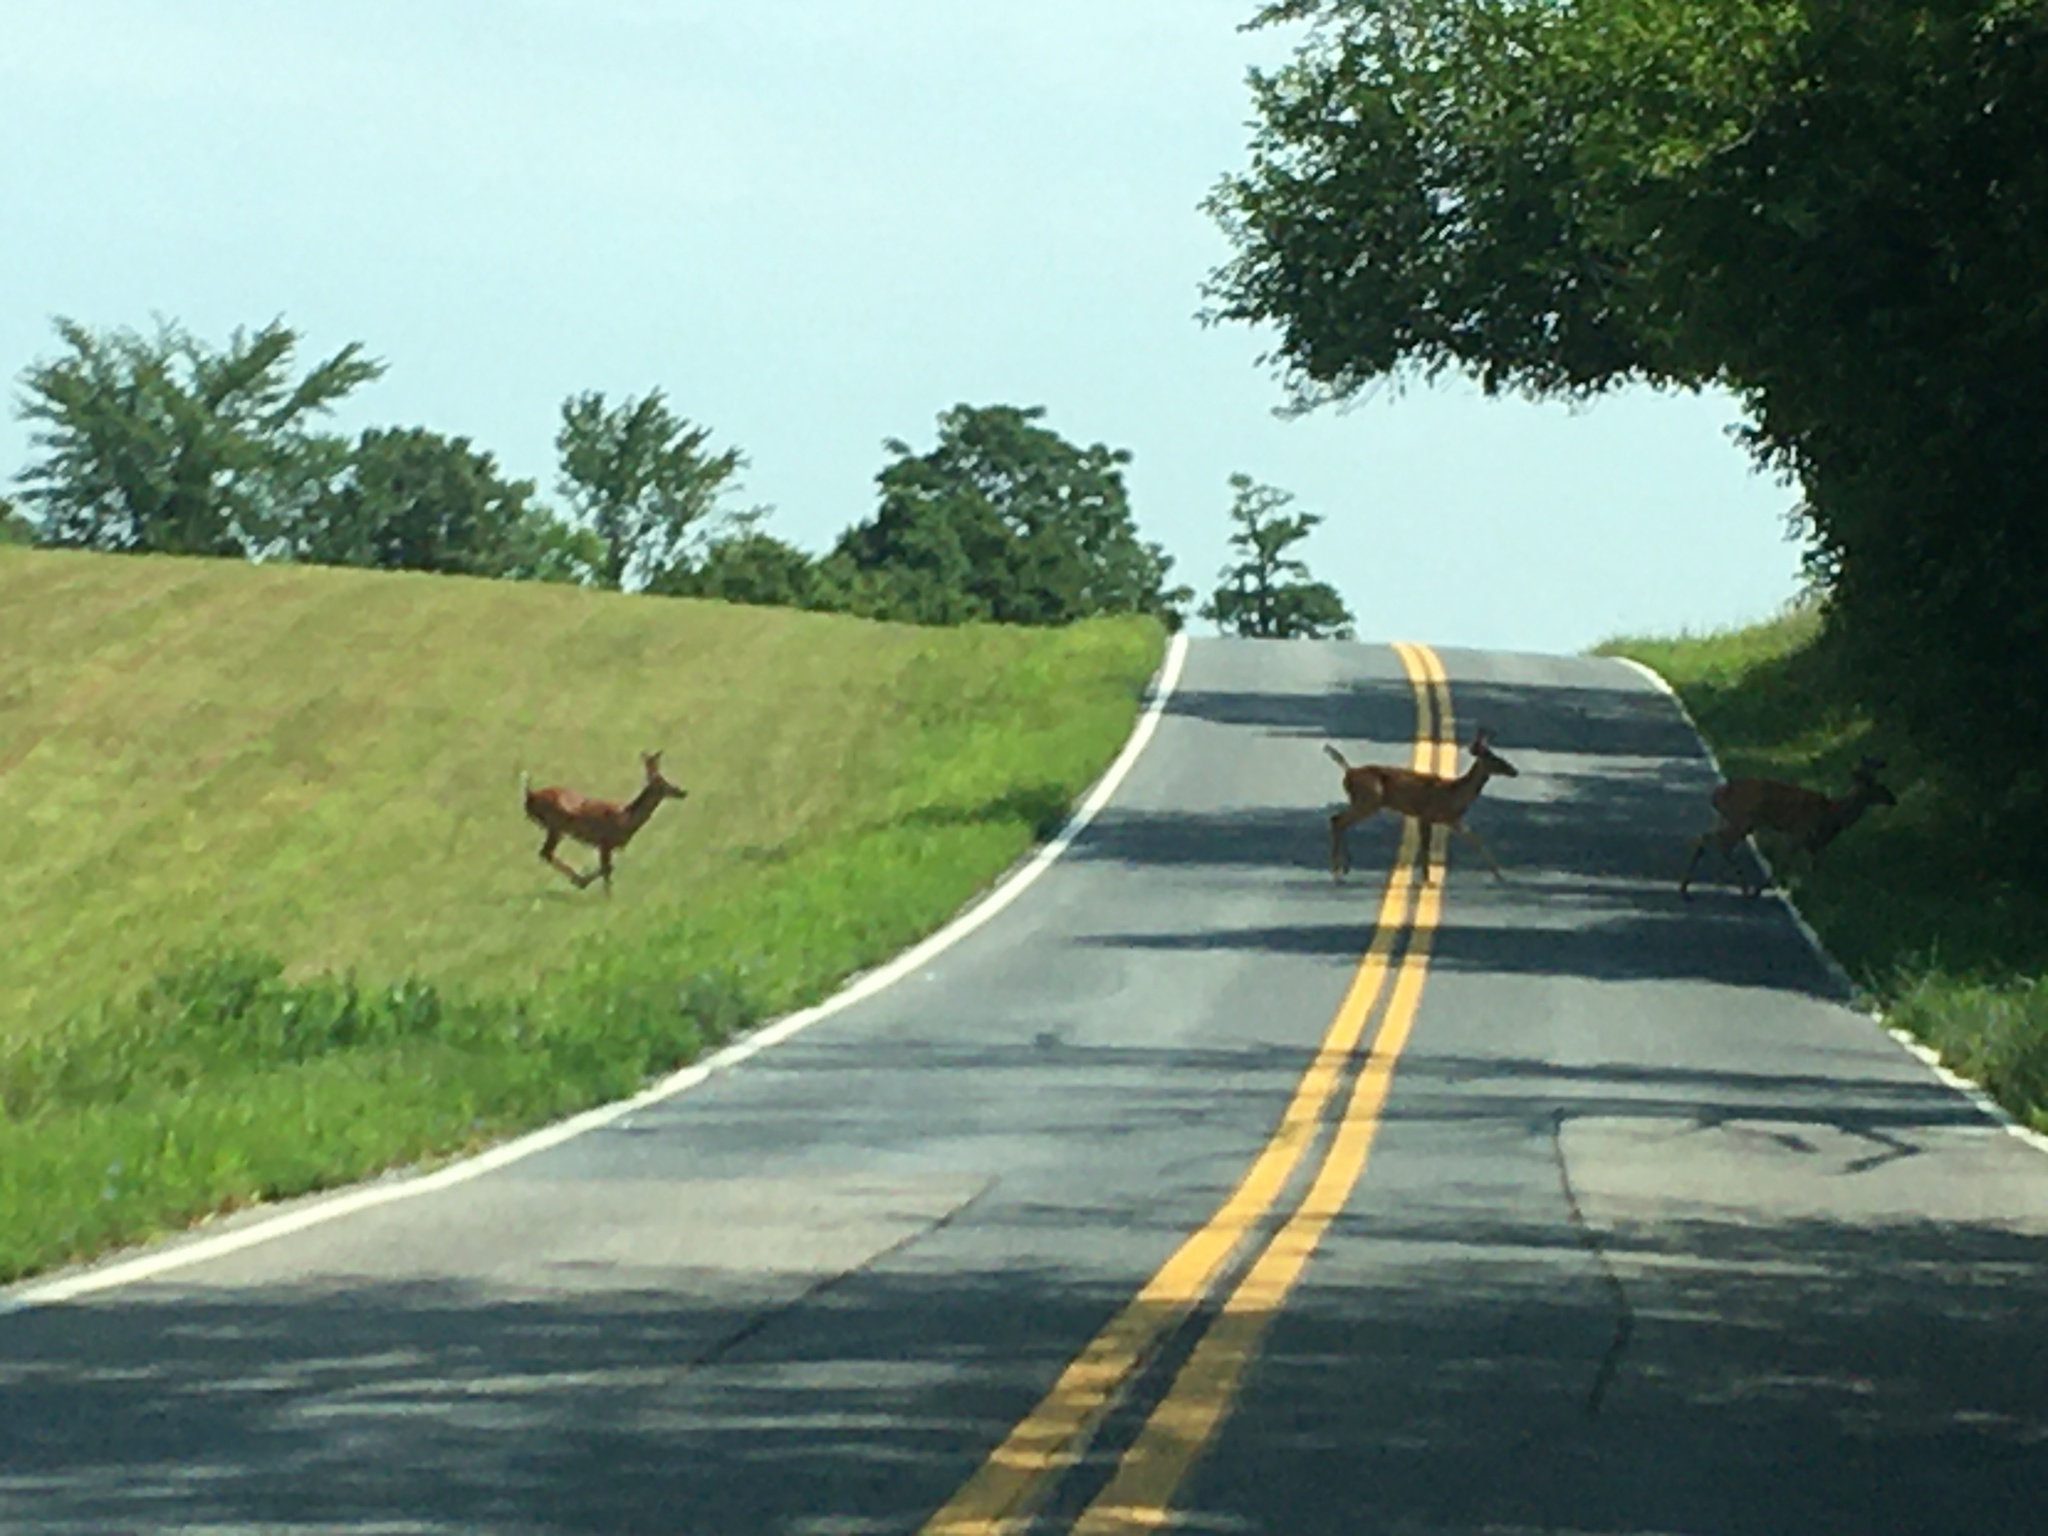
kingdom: Animalia
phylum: Chordata
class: Mammalia
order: Artiodactyla
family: Cervidae
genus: Odocoileus
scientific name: Odocoileus virginianus
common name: White-tailed deer
